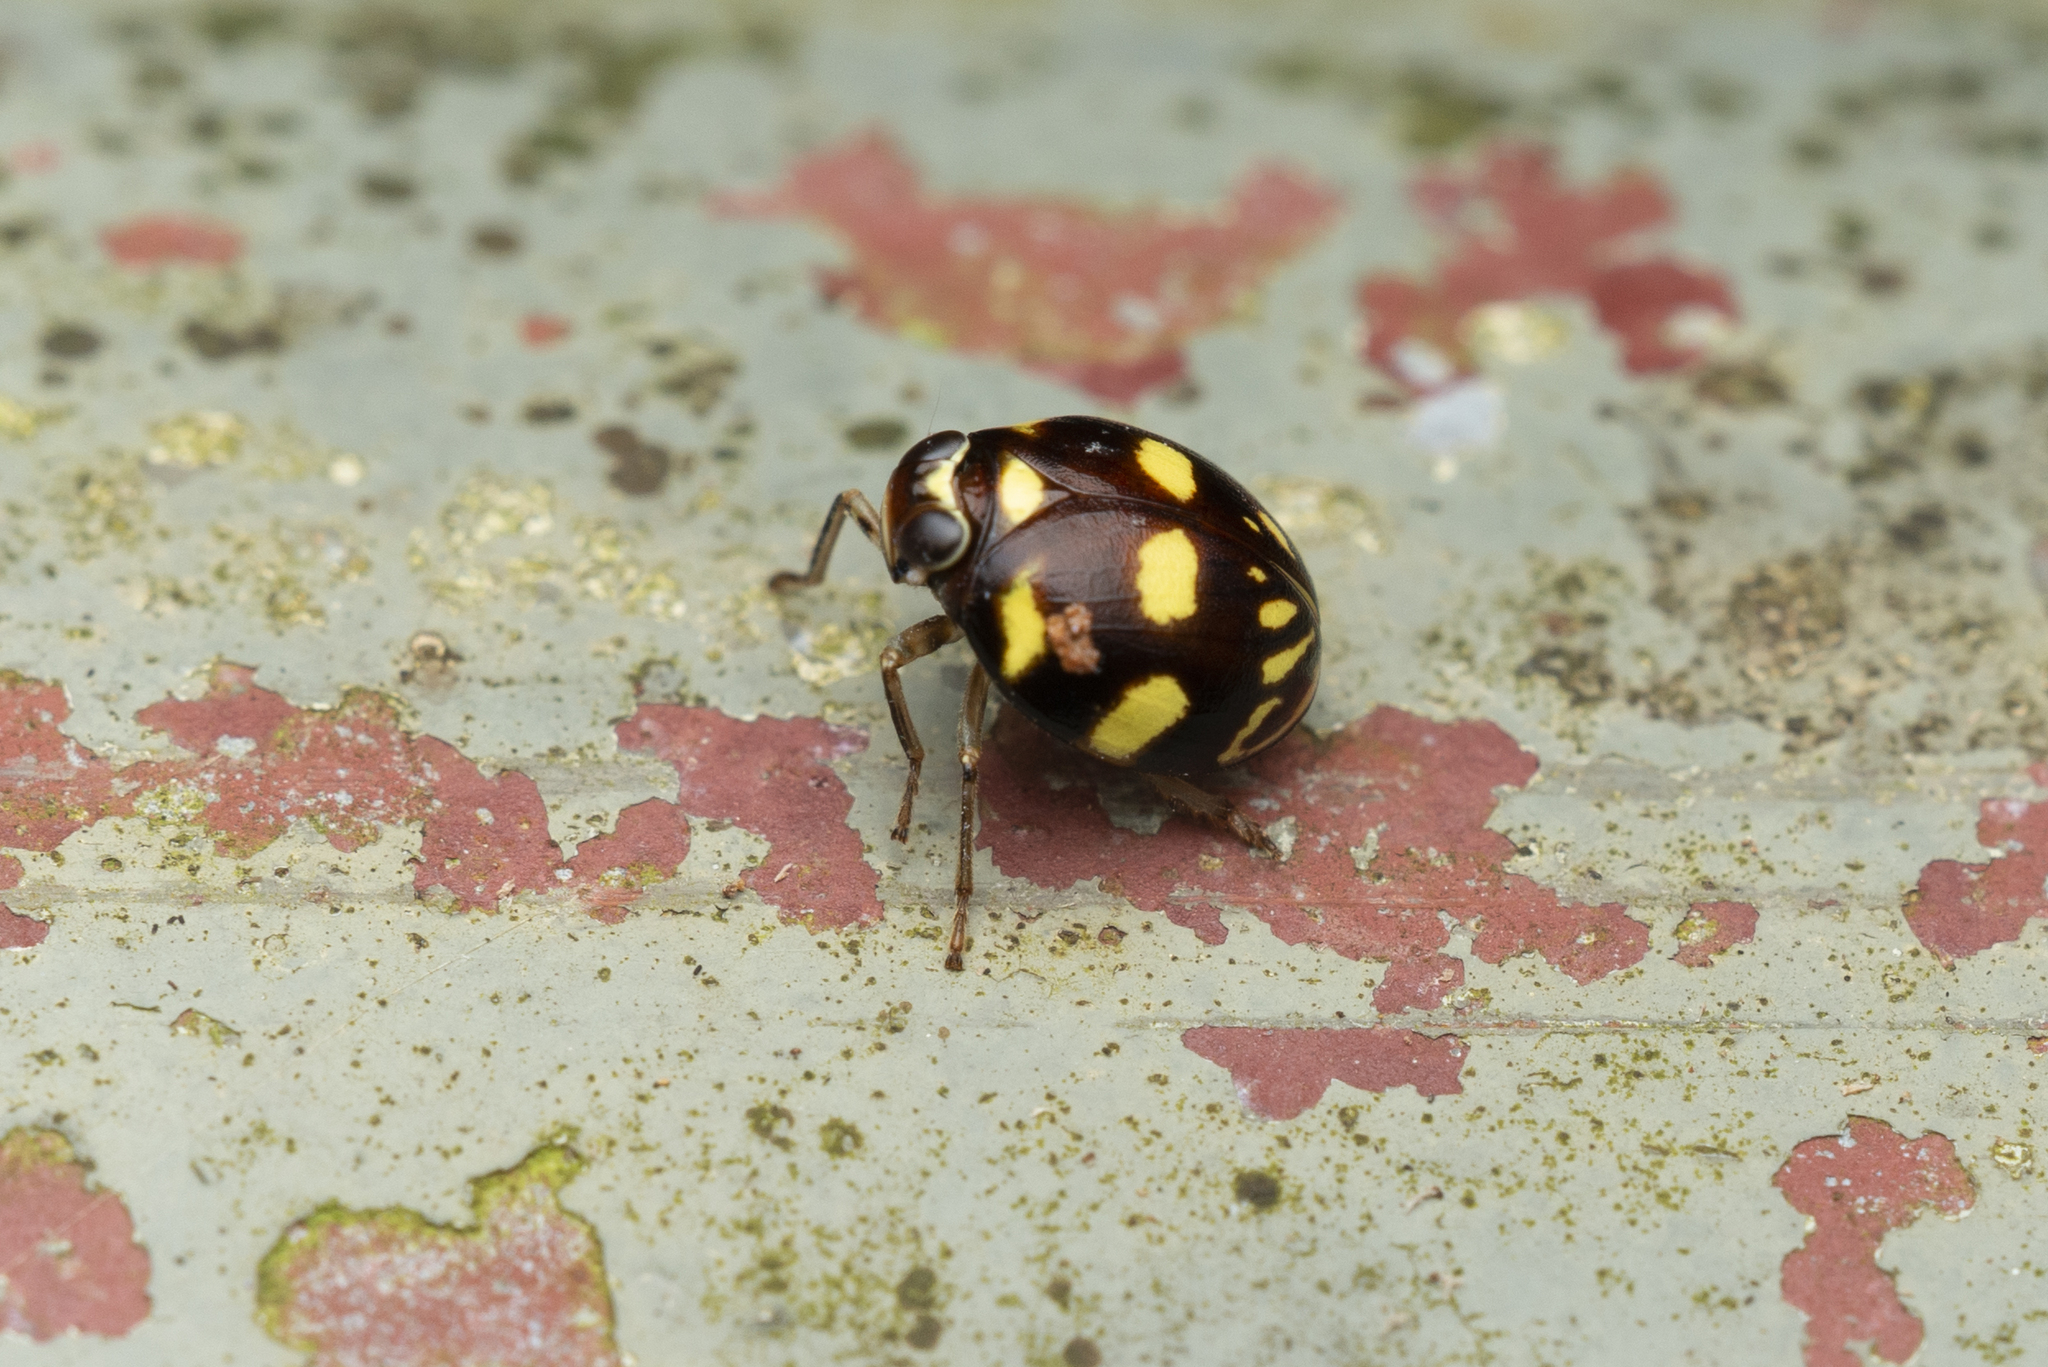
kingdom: Animalia
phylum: Arthropoda
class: Insecta
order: Hemiptera
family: Issidae
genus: Ceratogergithus
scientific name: Ceratogergithus pseudotessellatus
